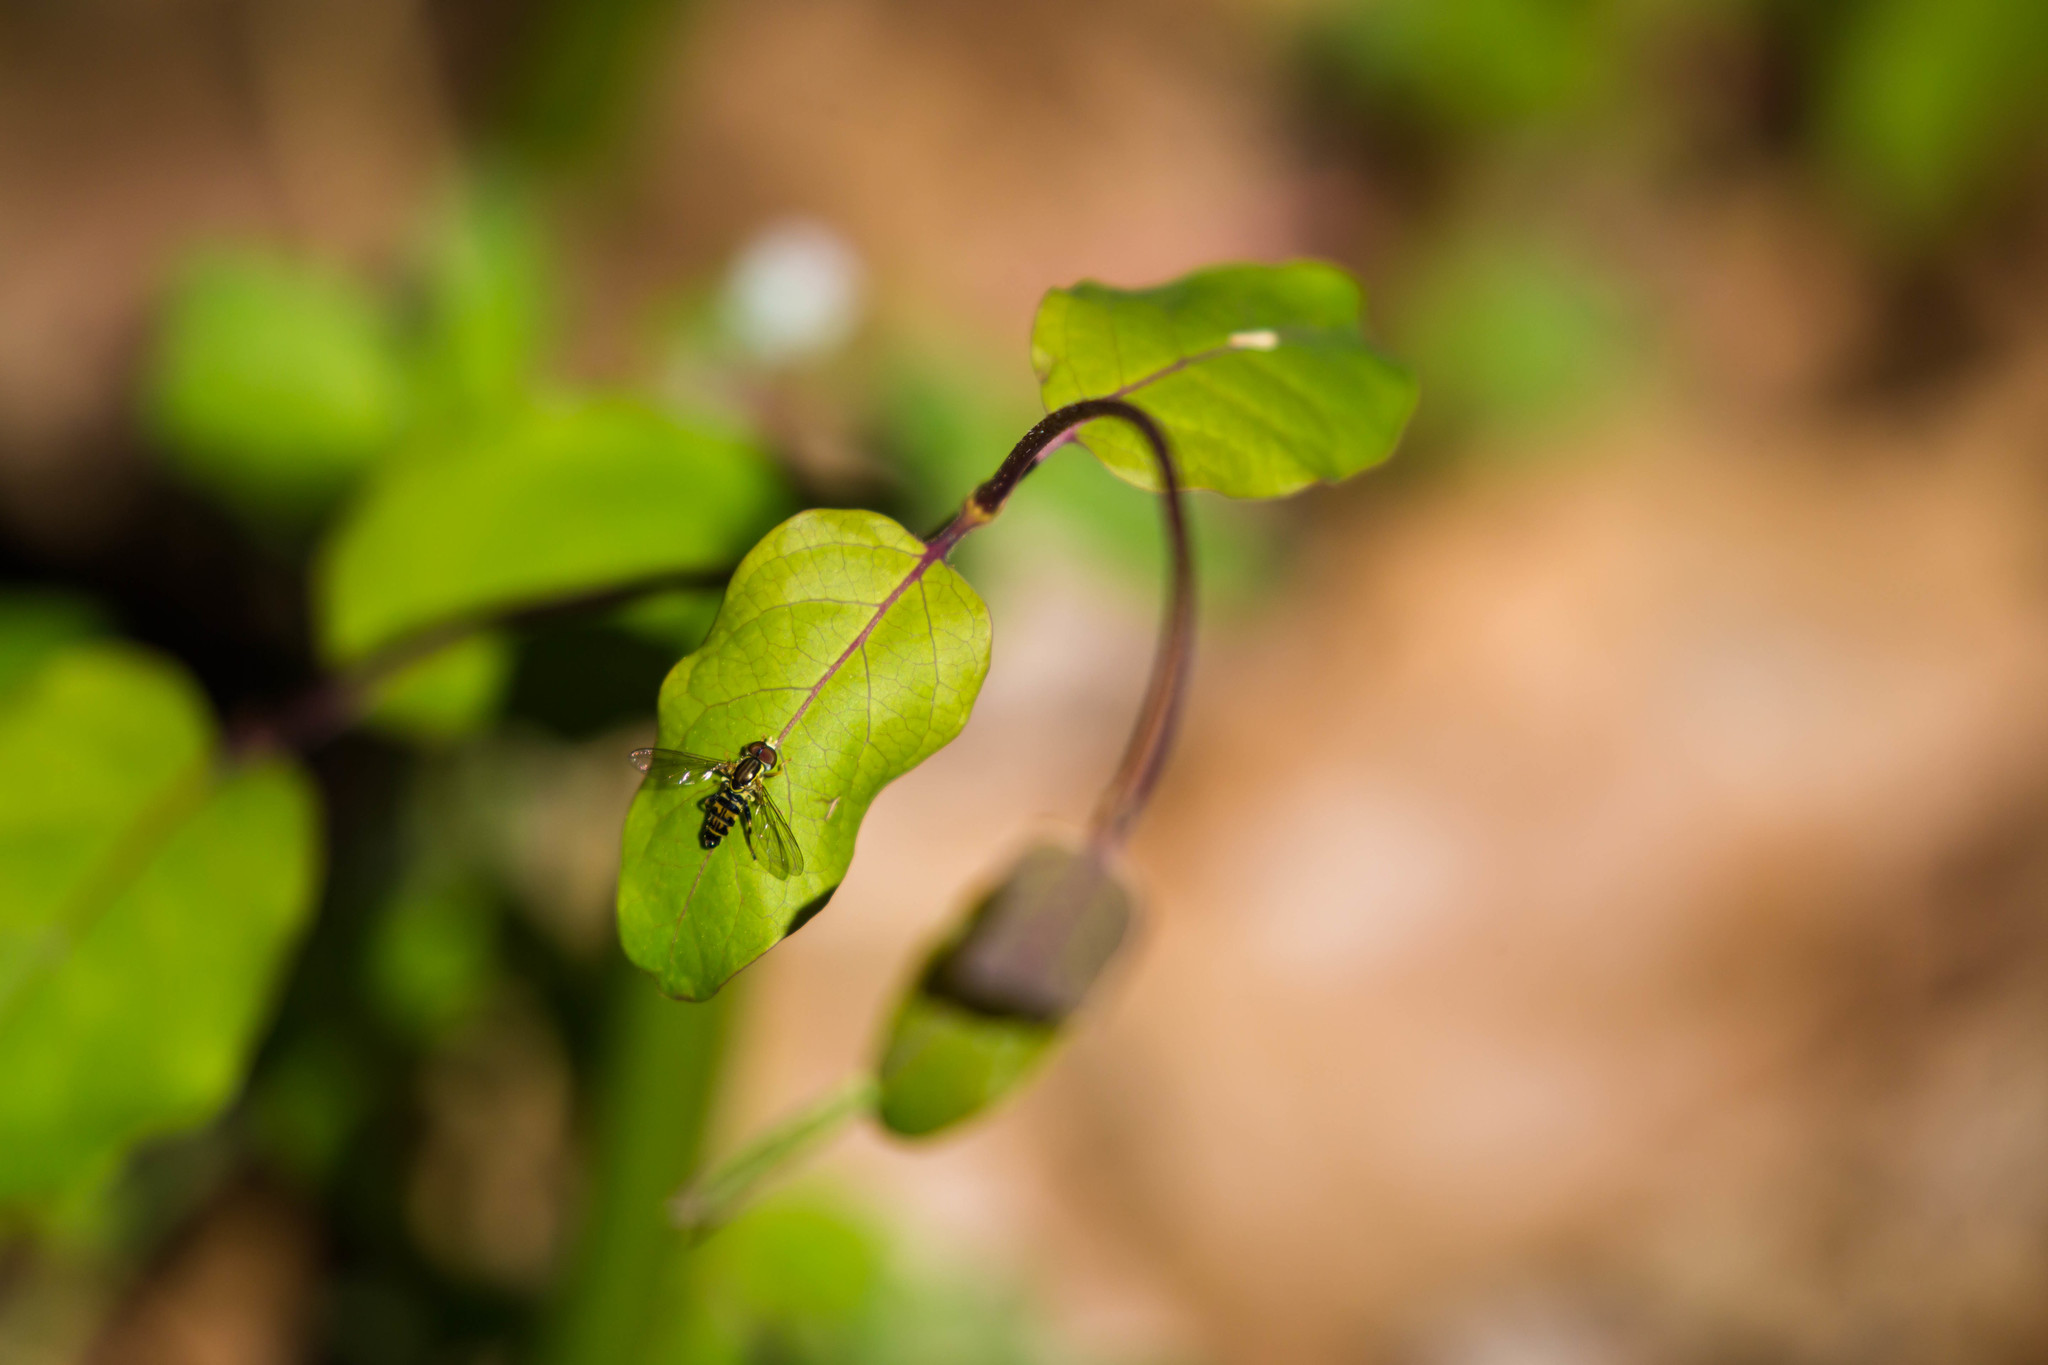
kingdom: Animalia
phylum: Arthropoda
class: Insecta
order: Diptera
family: Syrphidae
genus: Toxomerus
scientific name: Toxomerus geminatus
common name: Eastern calligrapher
